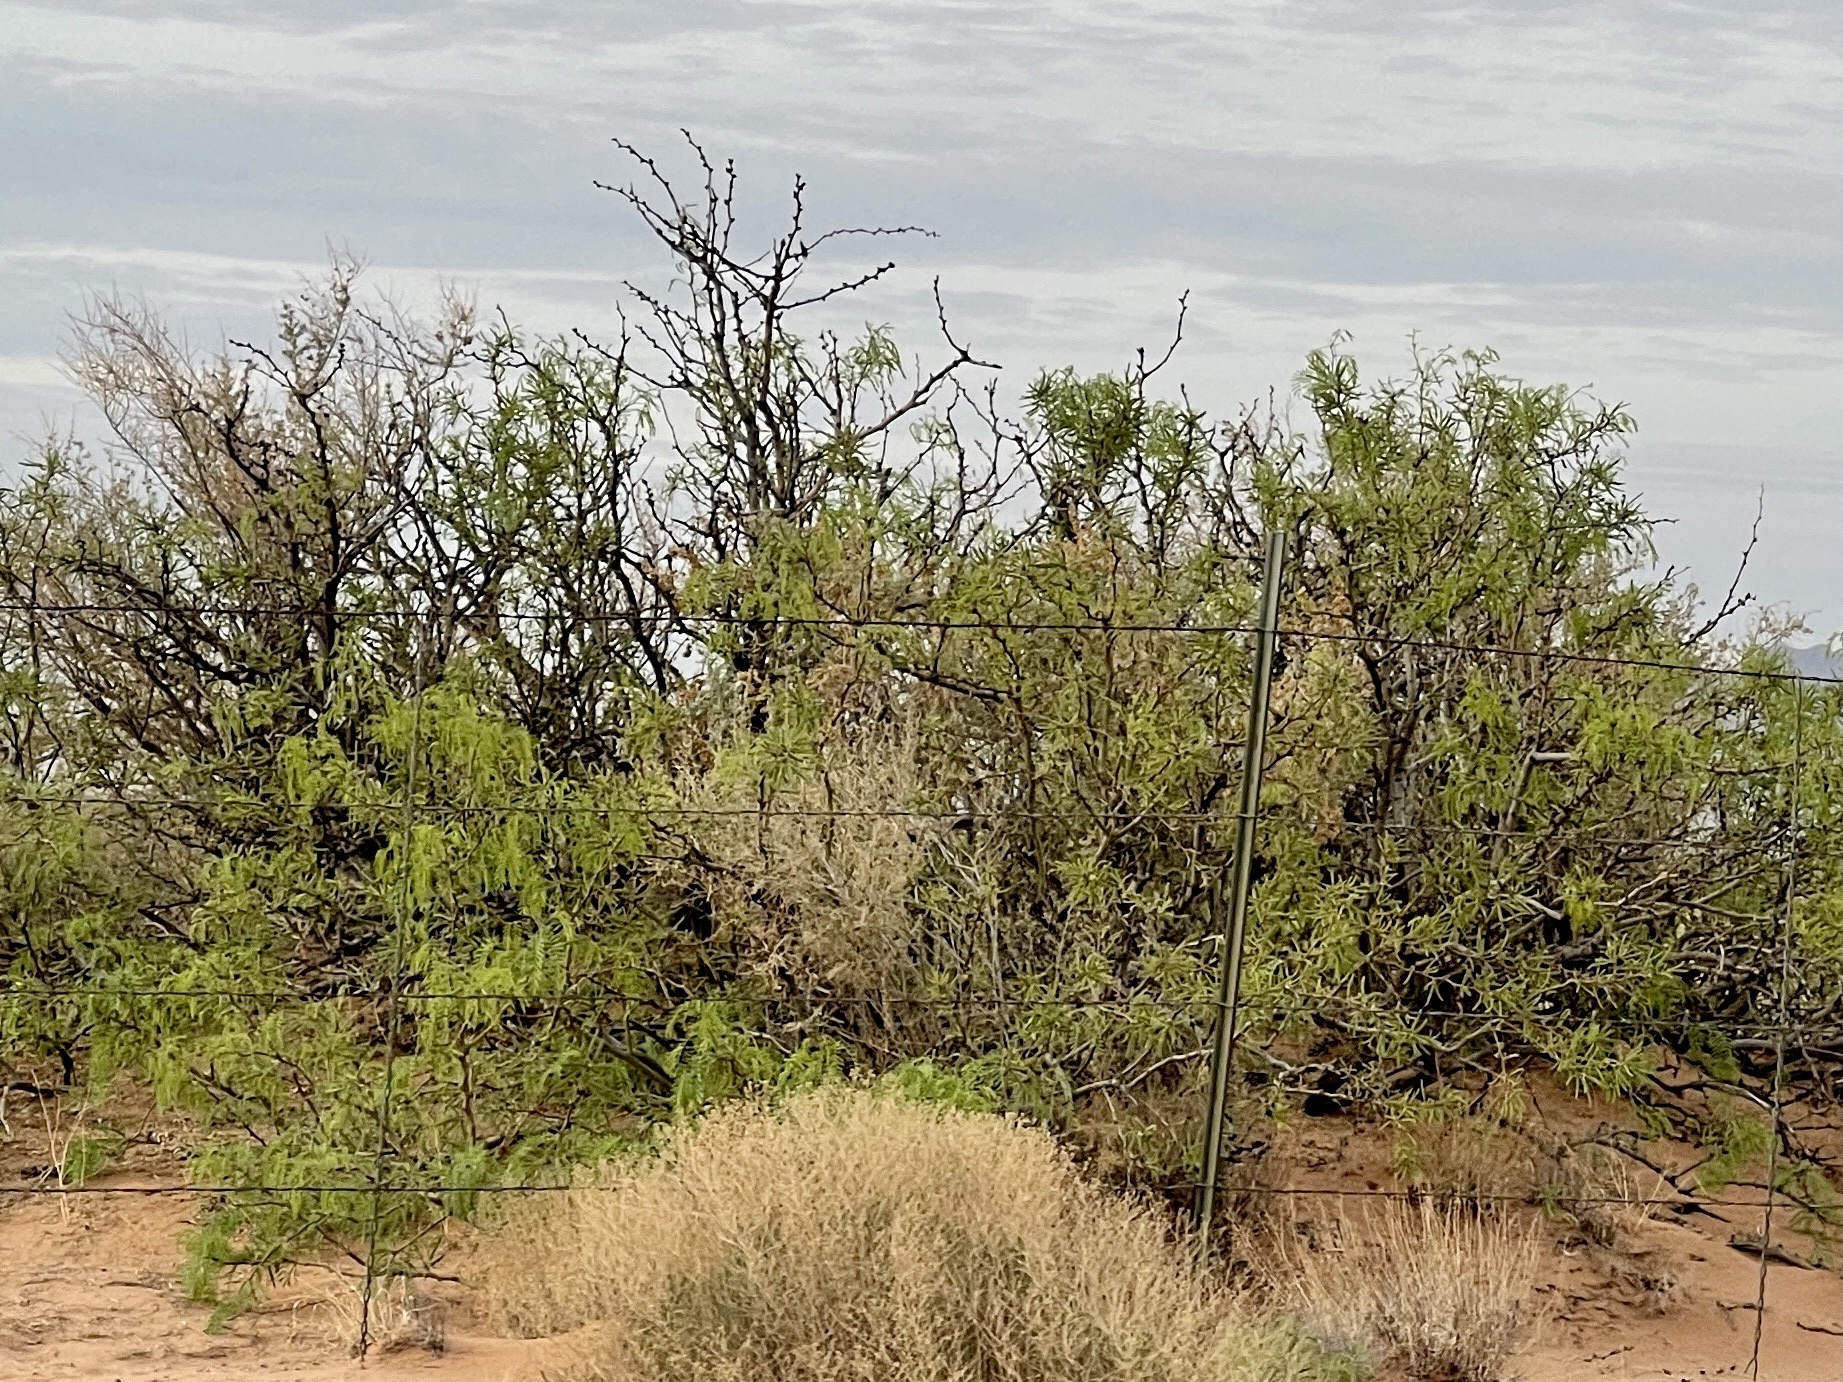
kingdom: Plantae
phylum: Tracheophyta
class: Magnoliopsida
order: Fabales
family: Fabaceae
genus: Prosopis
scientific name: Prosopis glandulosa
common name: Honey mesquite
